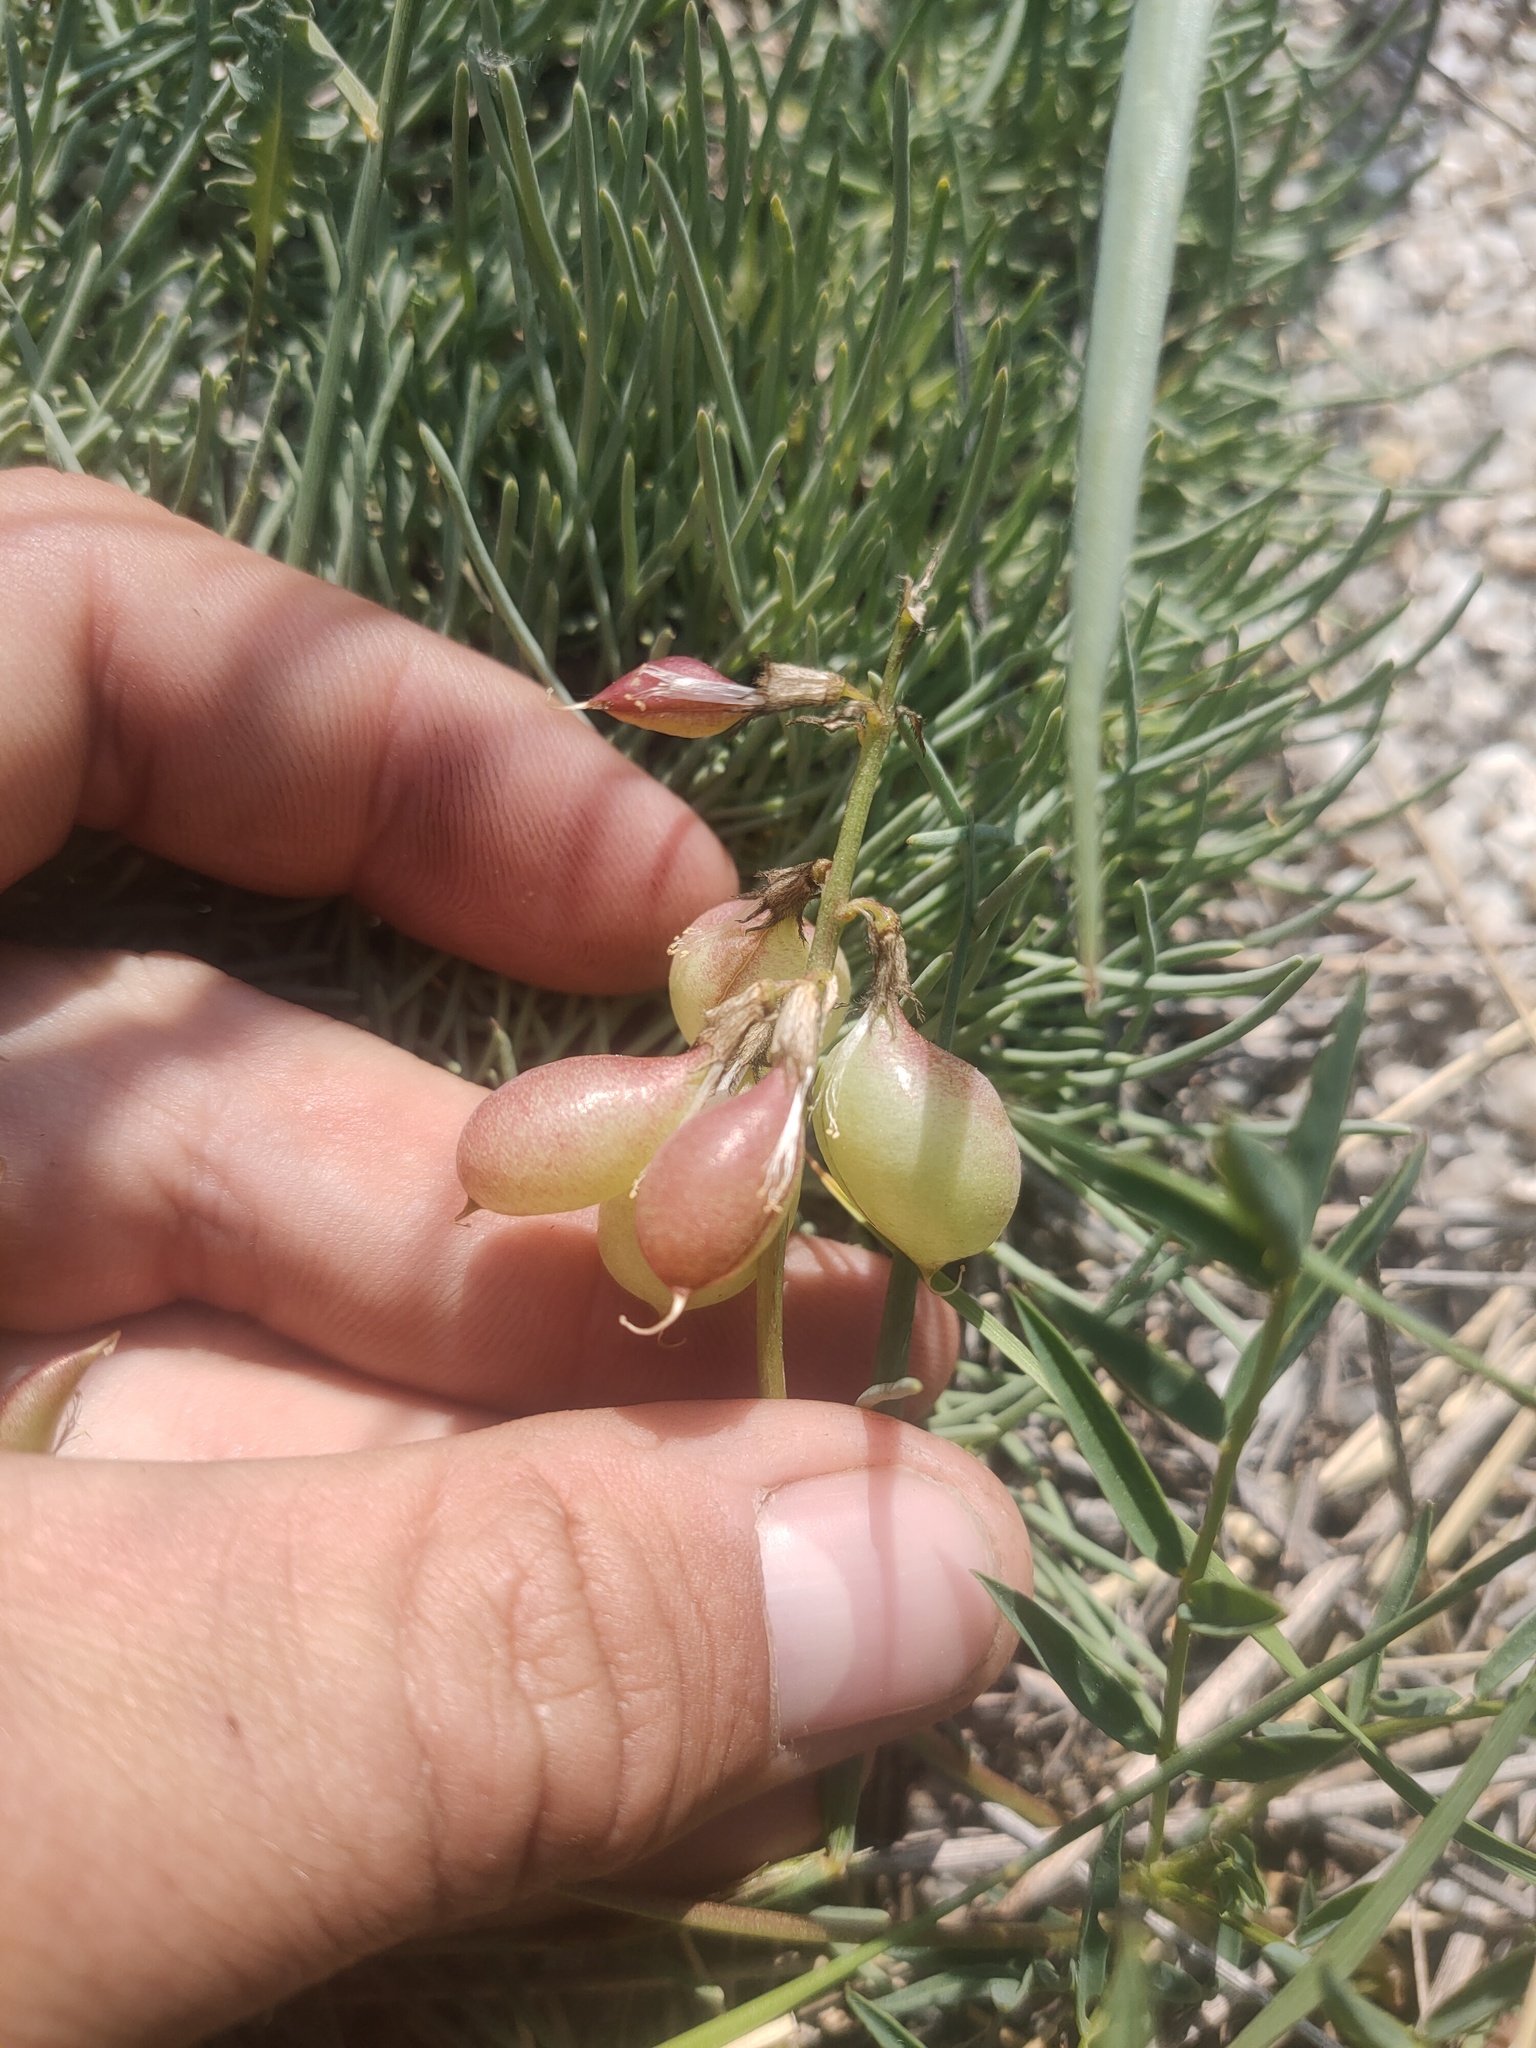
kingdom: Plantae
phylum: Tracheophyta
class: Magnoliopsida
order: Fabales
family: Fabaceae
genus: Astragalus
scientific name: Astragalus chorinensis
